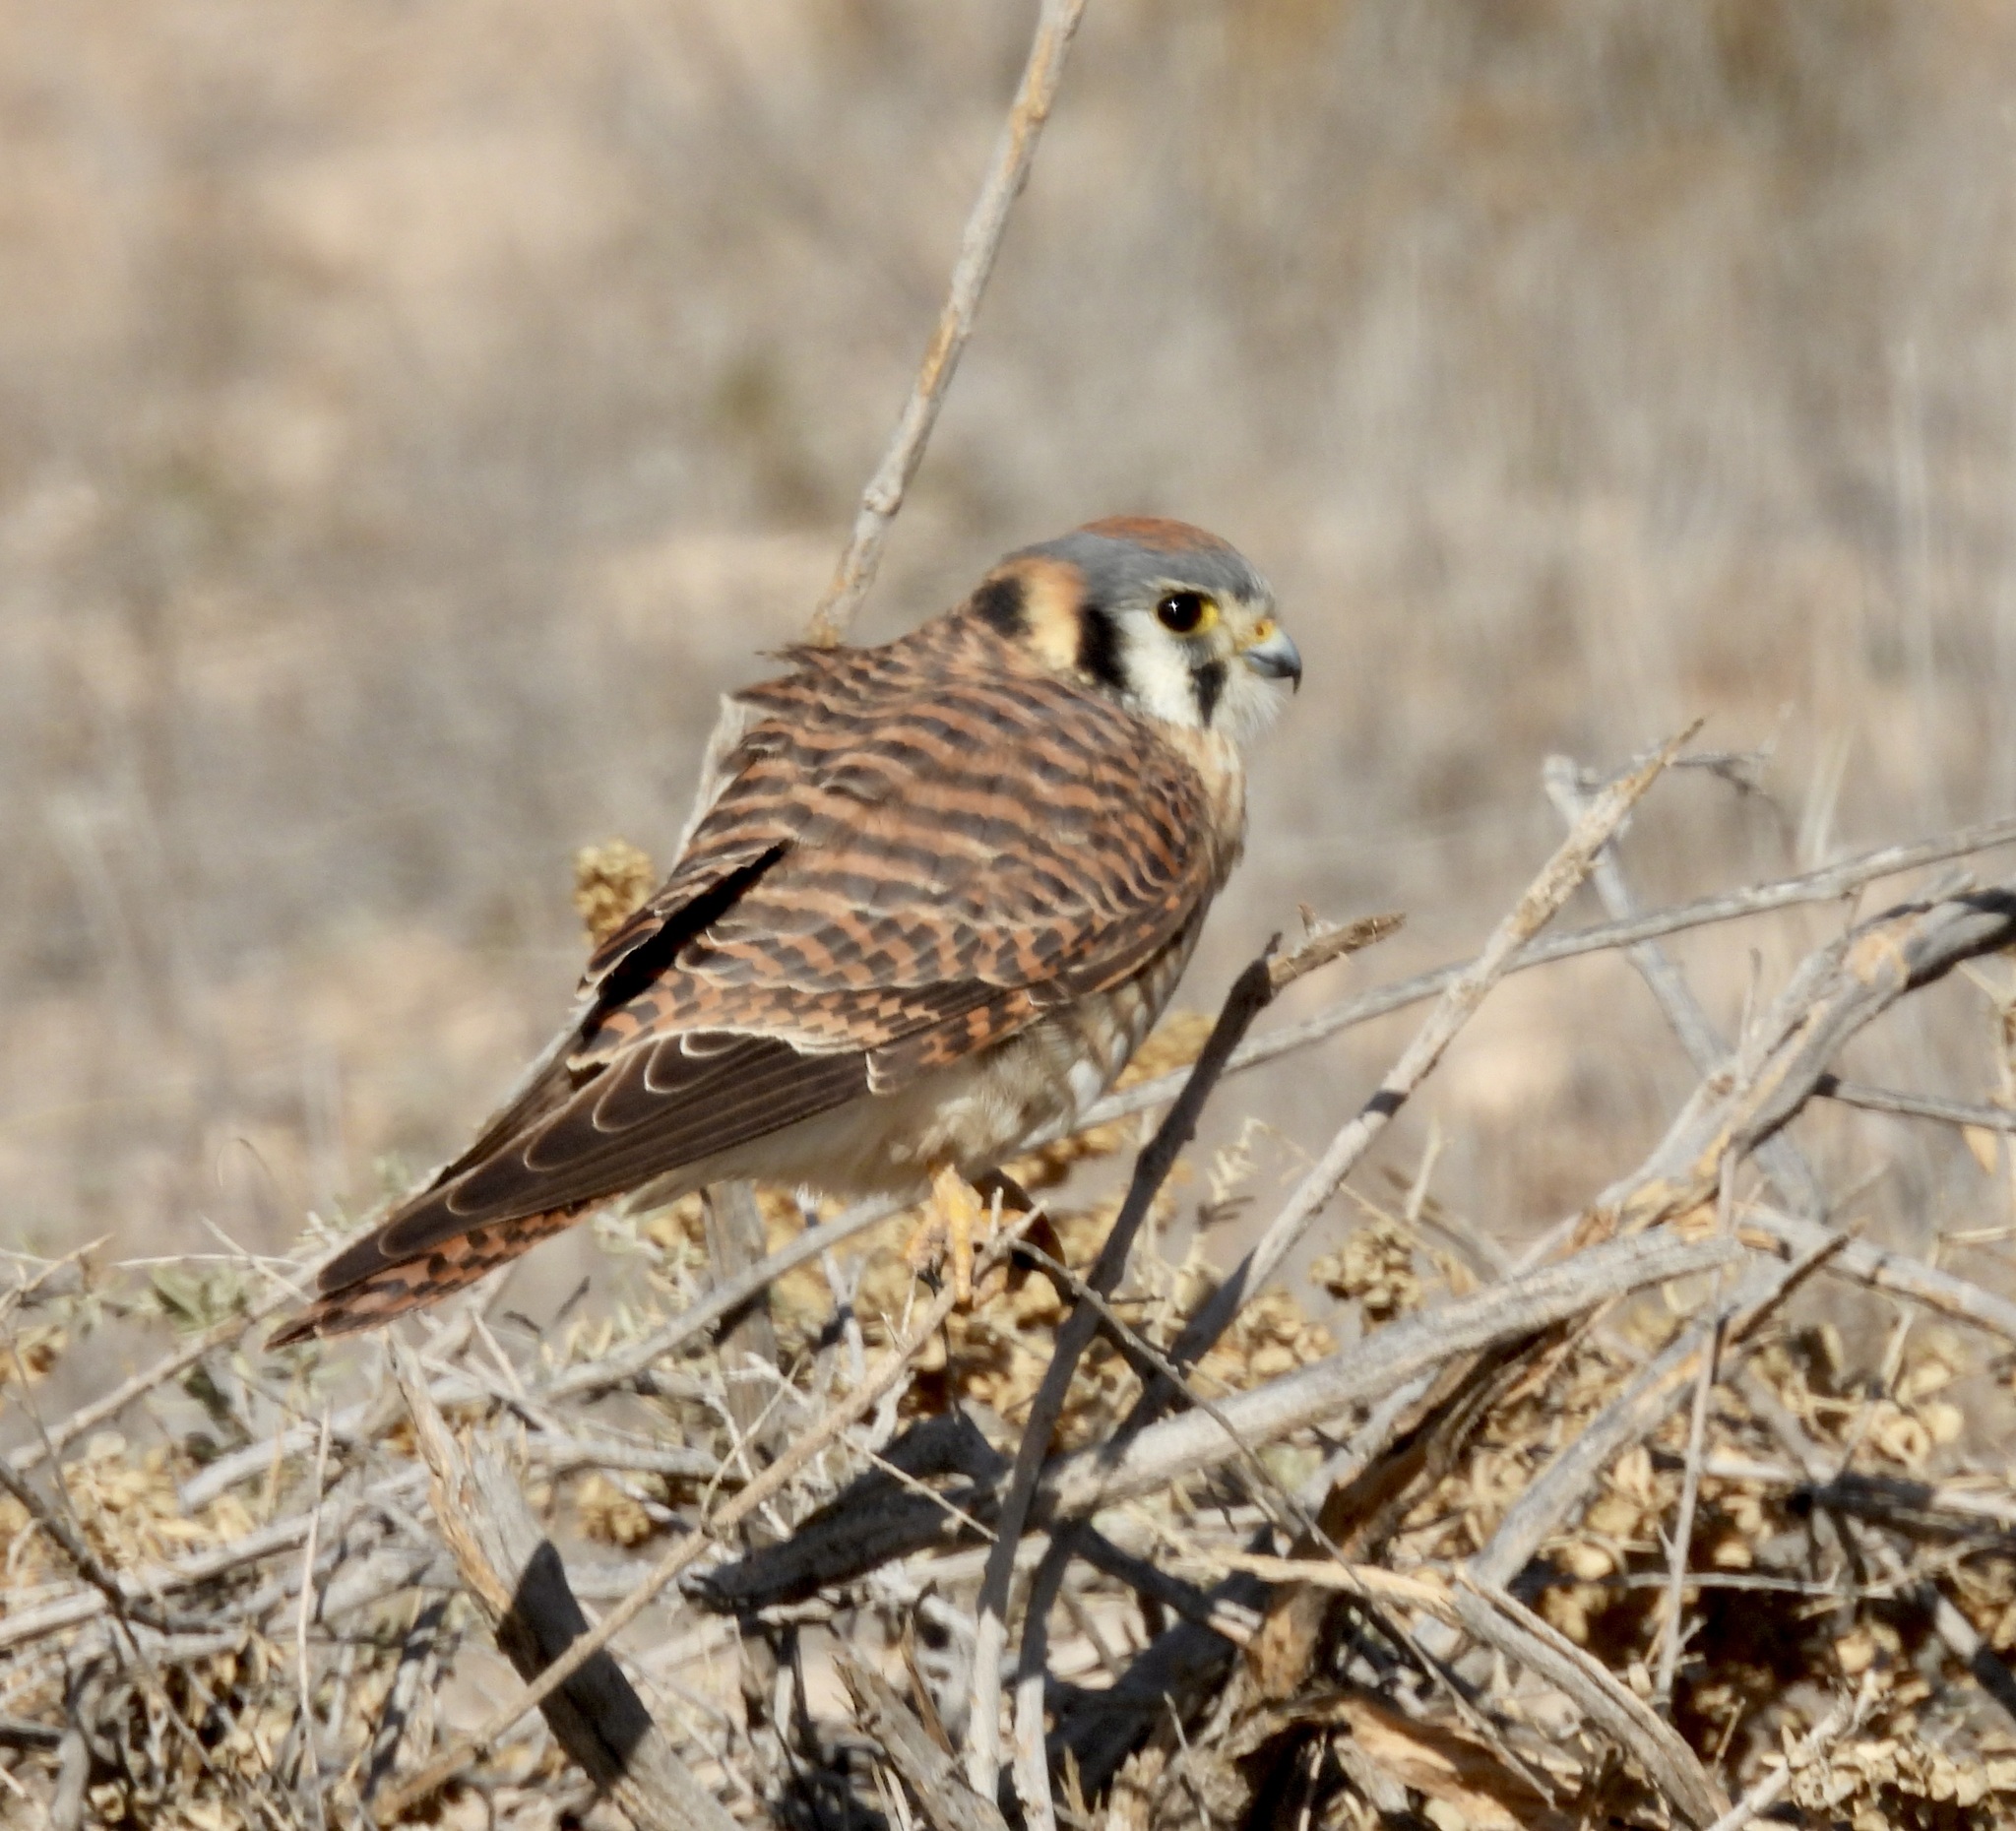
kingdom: Animalia
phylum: Chordata
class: Aves
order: Falconiformes
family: Falconidae
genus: Falco
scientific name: Falco sparverius
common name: American kestrel
